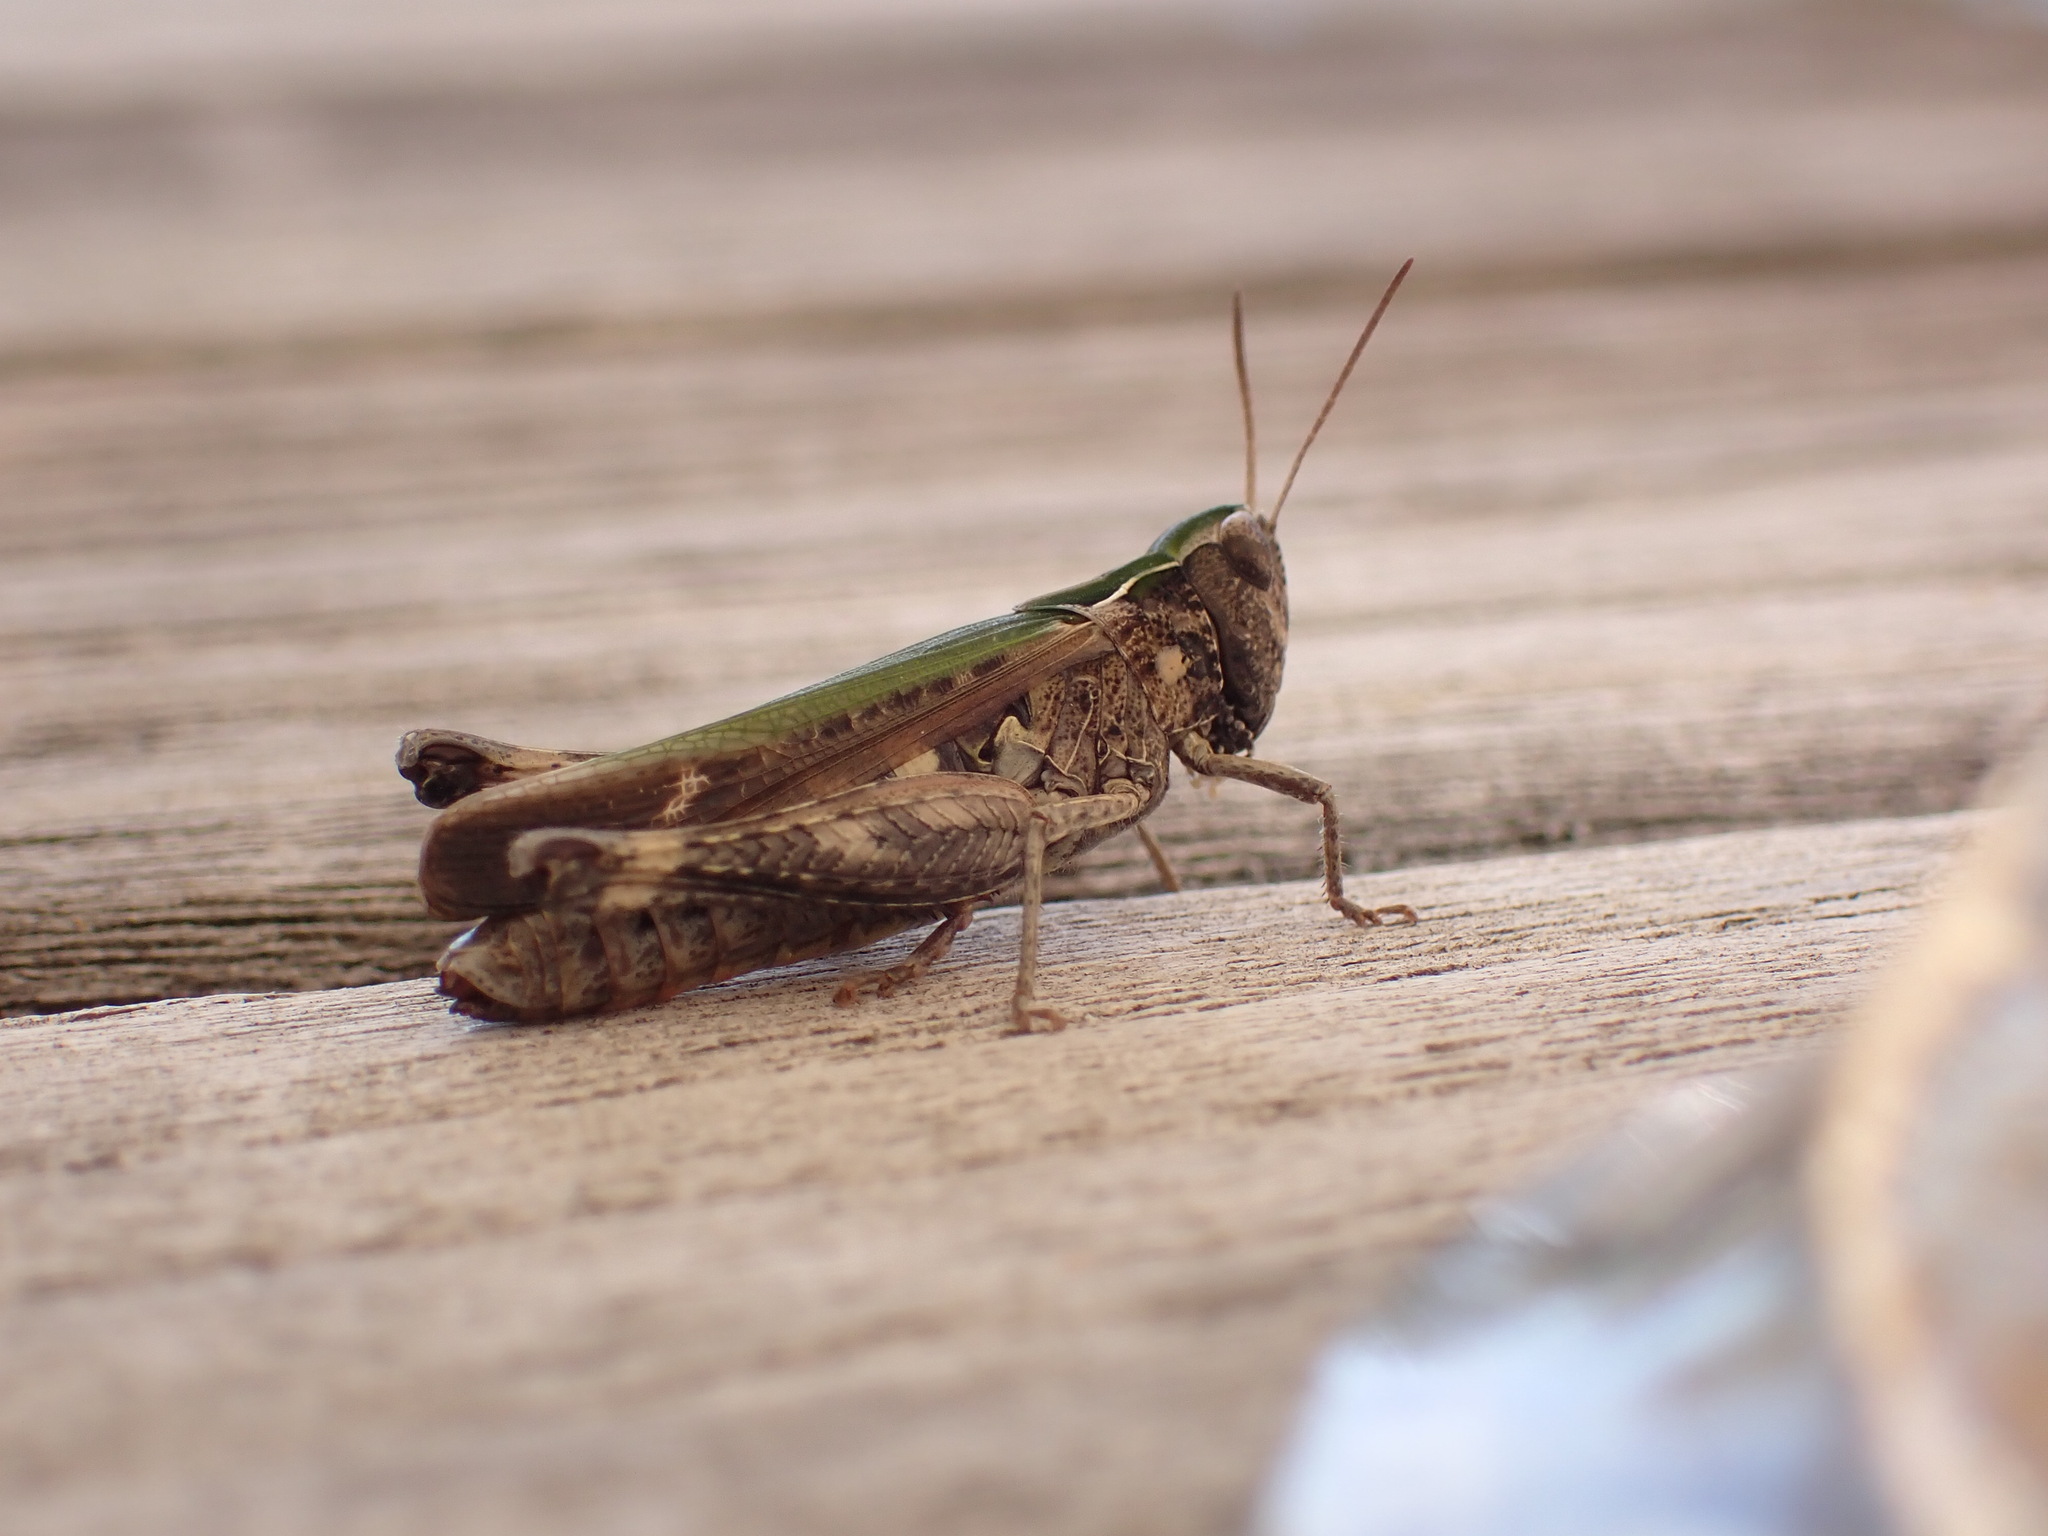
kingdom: Animalia
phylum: Arthropoda
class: Insecta
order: Orthoptera
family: Acrididae
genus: Omocestus
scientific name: Omocestus rufipes
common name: Woodland grasshopper
